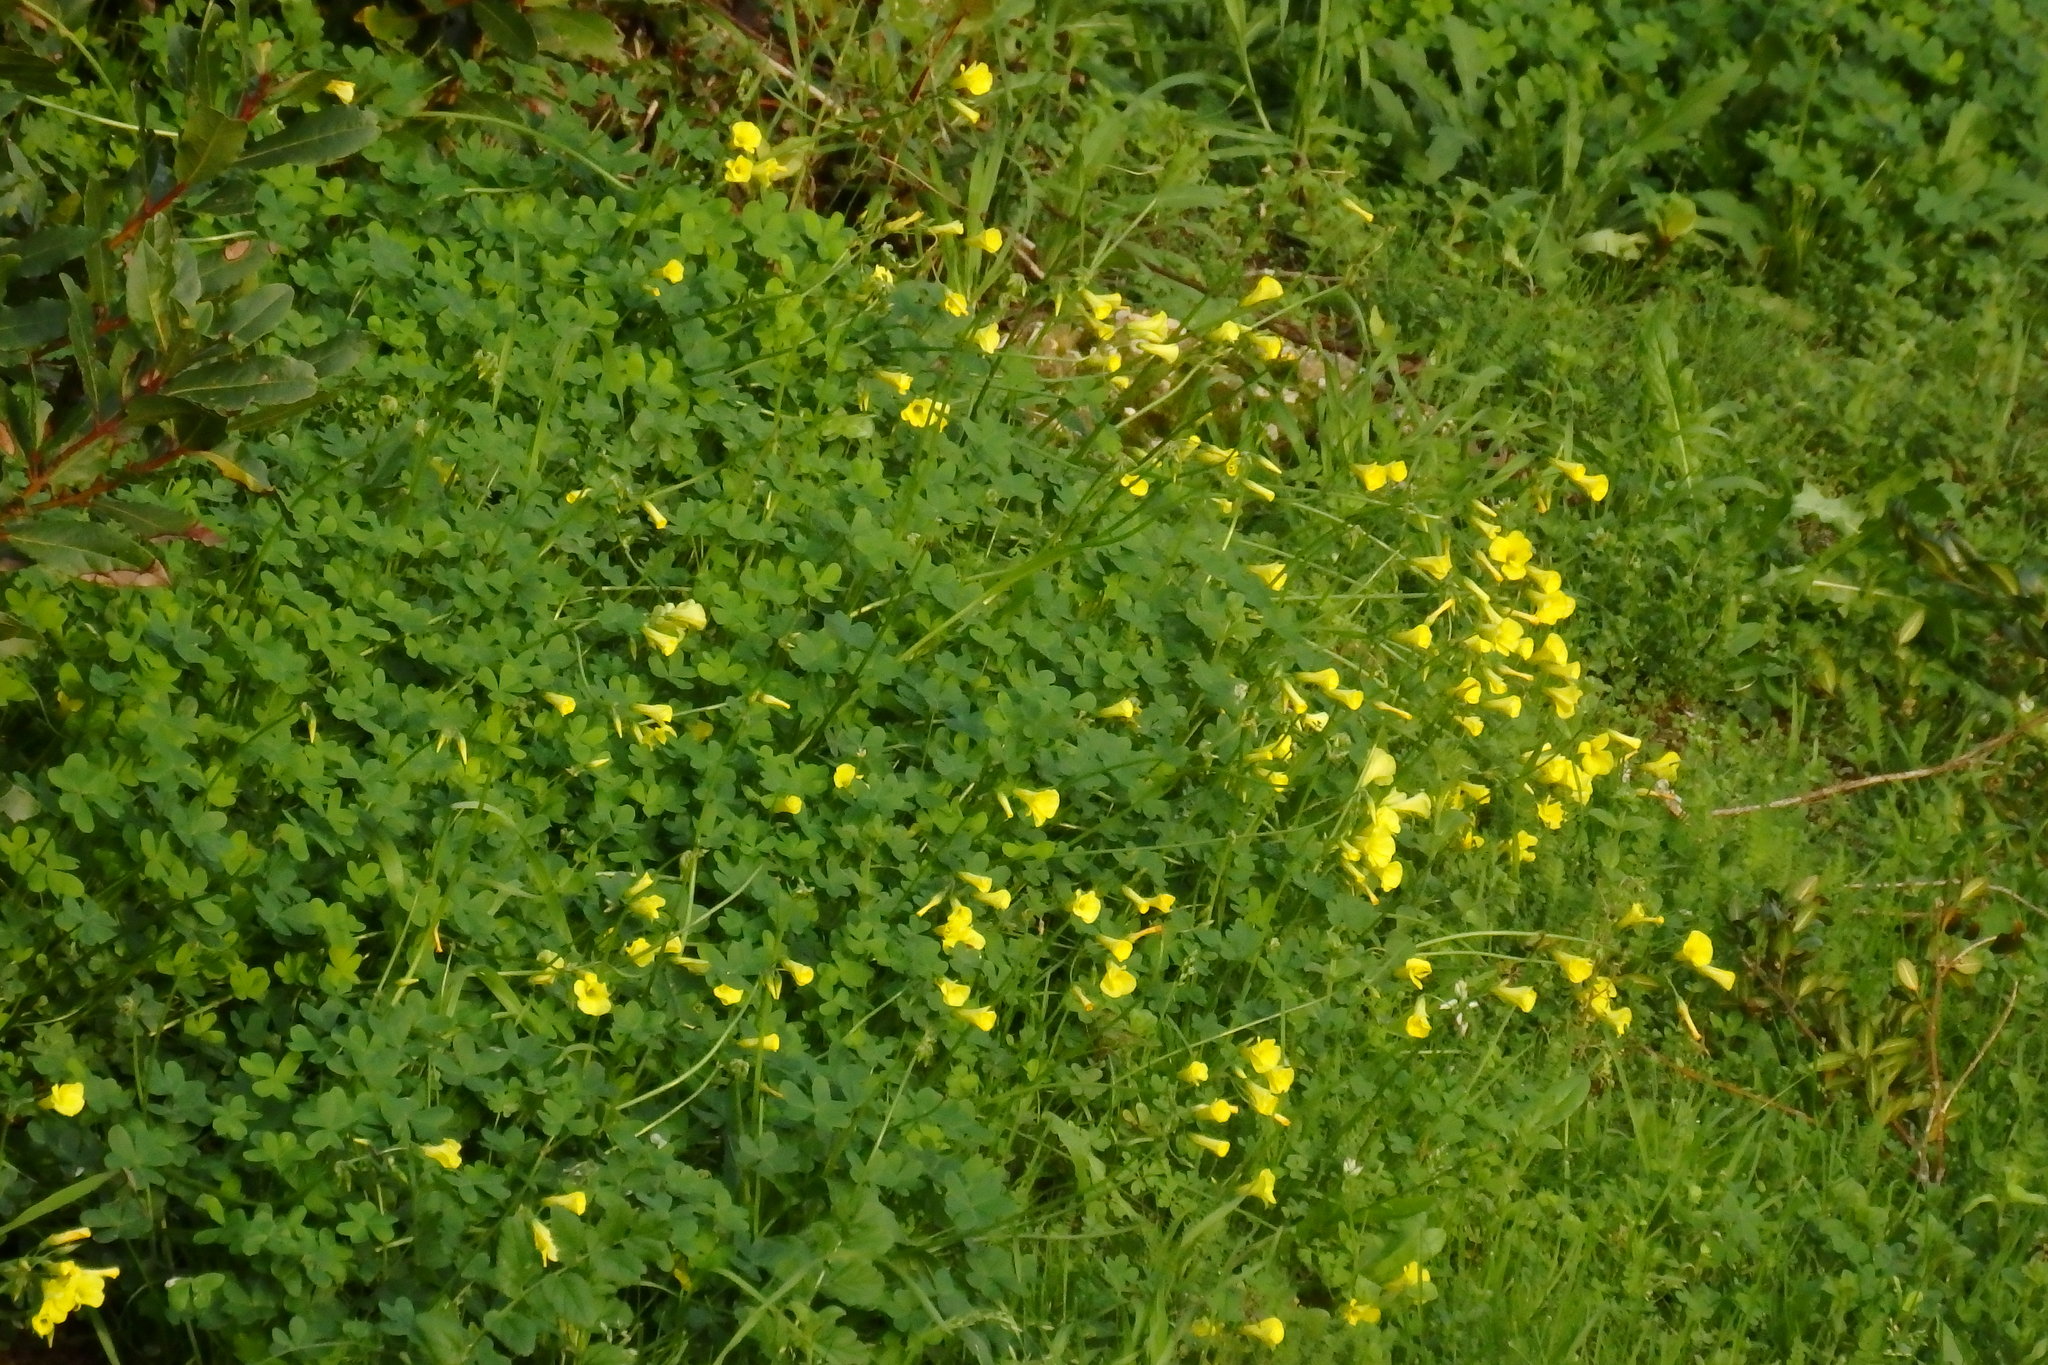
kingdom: Plantae
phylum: Tracheophyta
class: Magnoliopsida
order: Oxalidales
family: Oxalidaceae
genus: Oxalis
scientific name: Oxalis pes-caprae
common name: Bermuda-buttercup
